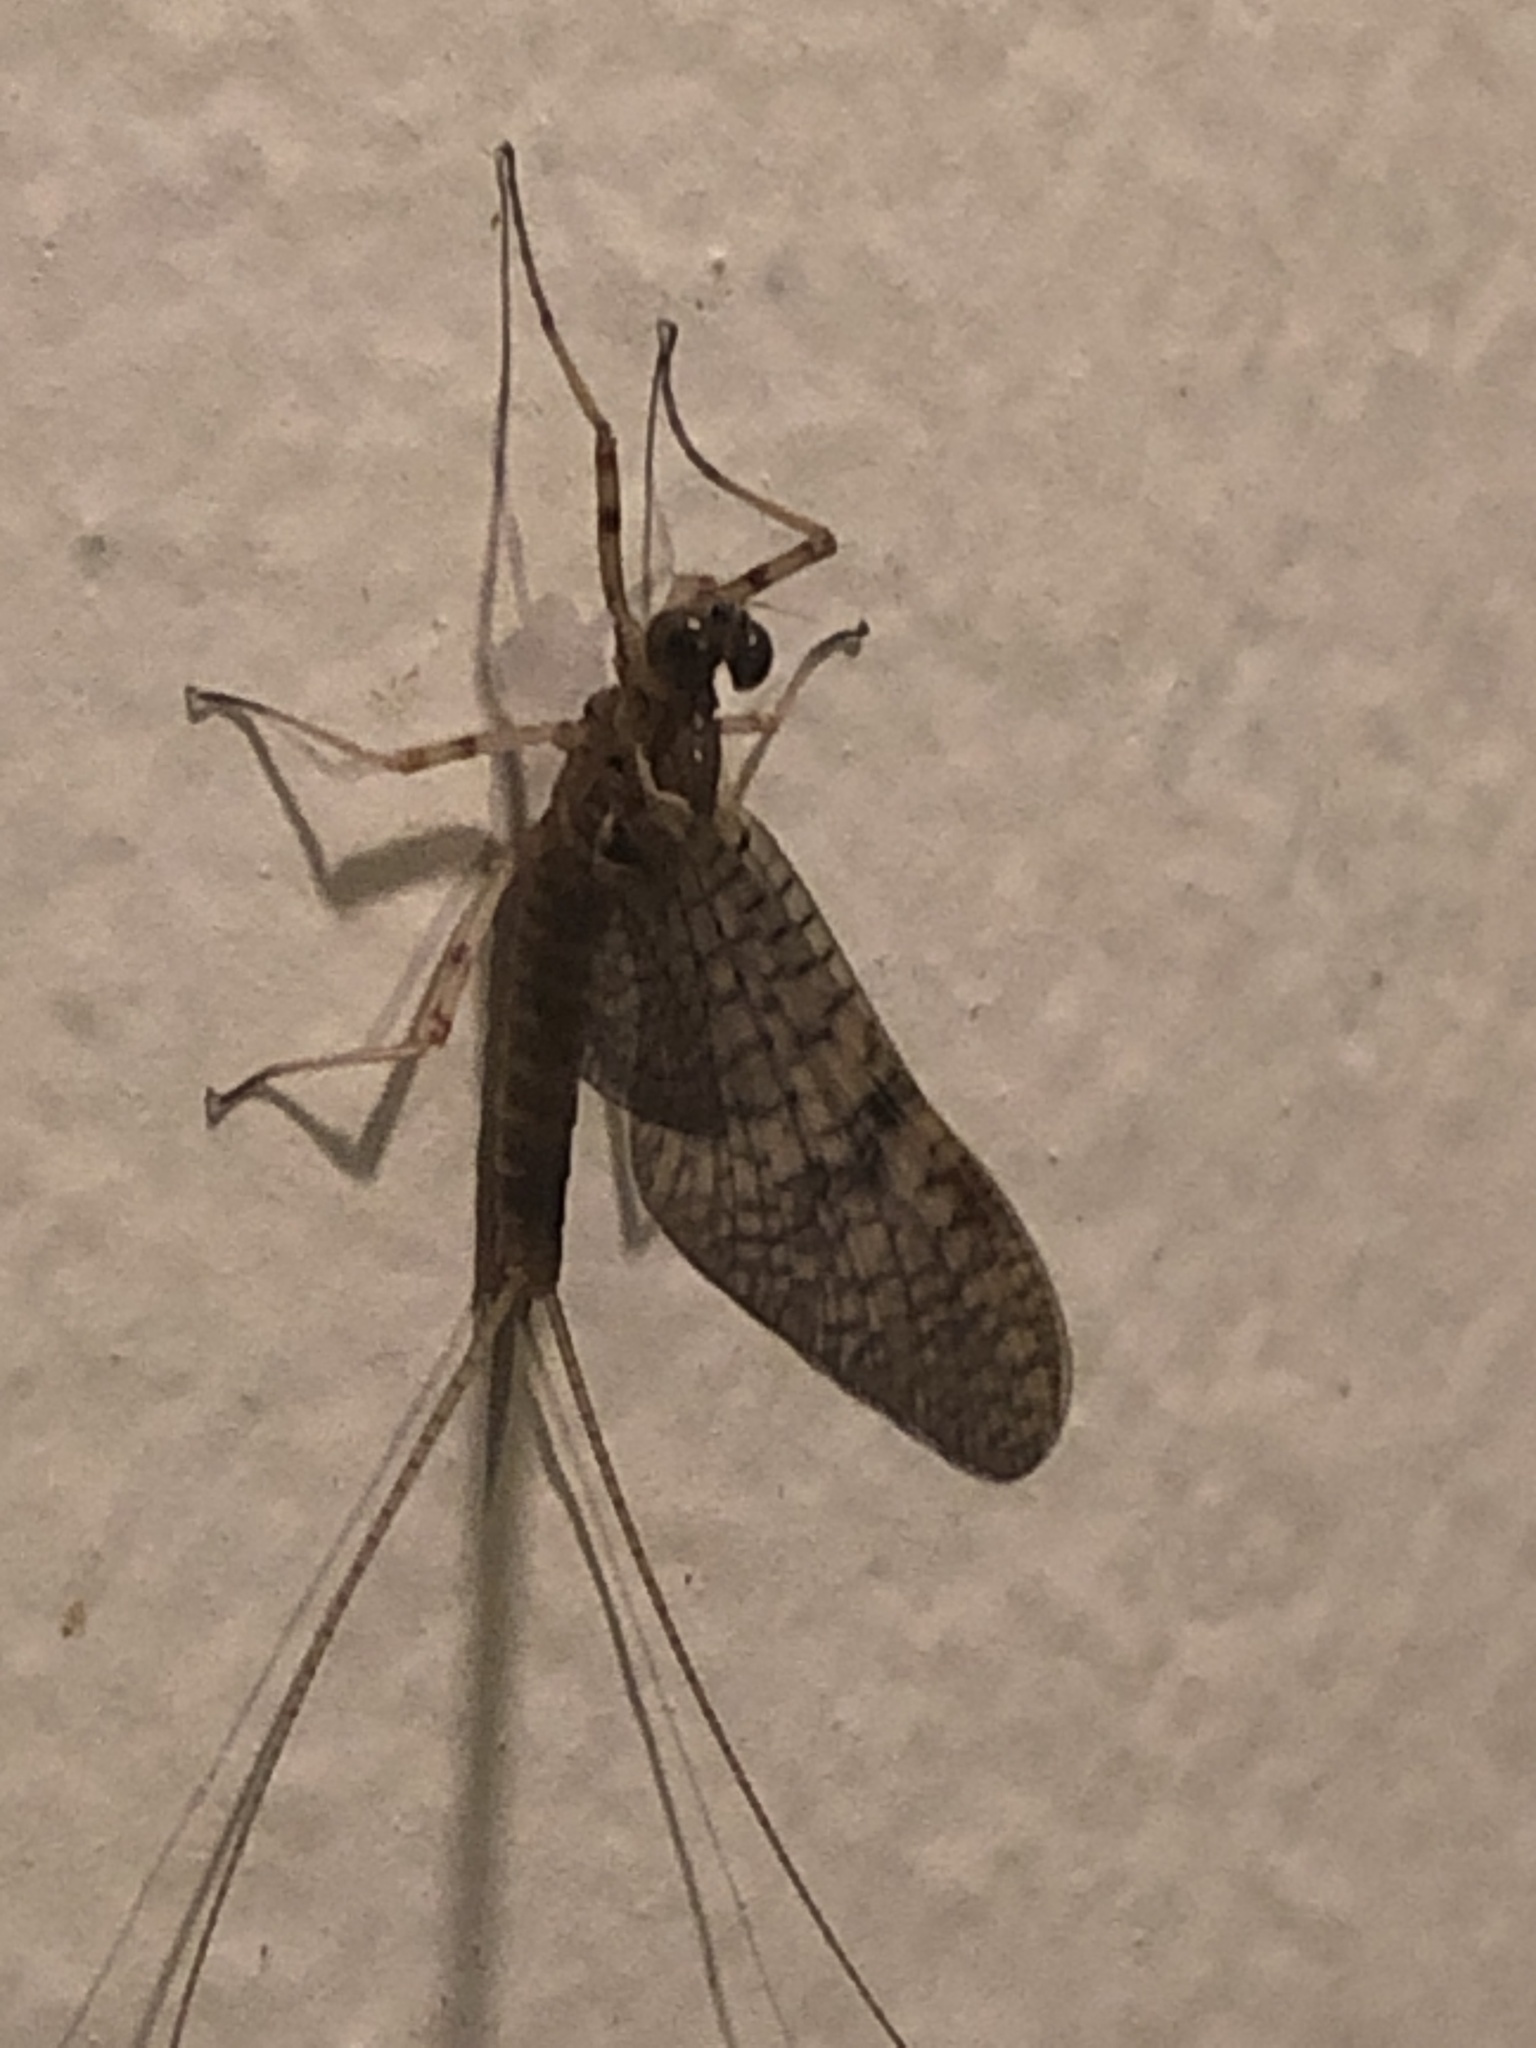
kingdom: Animalia
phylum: Arthropoda
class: Insecta
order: Ephemeroptera
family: Heptageniidae
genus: Stenonema
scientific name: Stenonema femoratum
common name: Dark cahill
